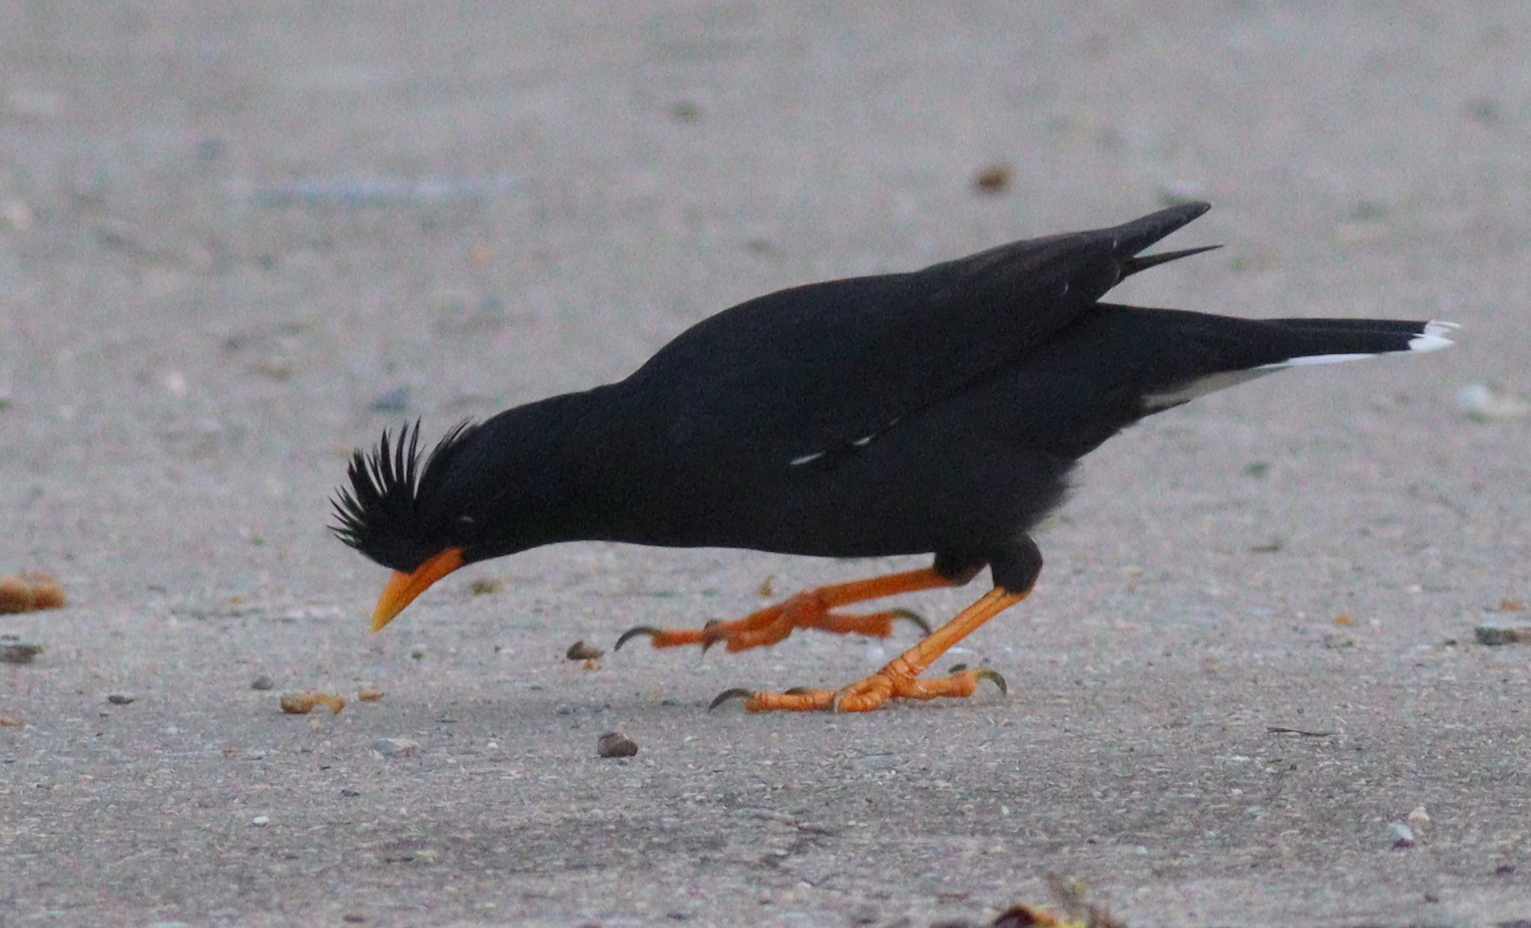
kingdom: Animalia
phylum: Chordata
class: Aves
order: Passeriformes
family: Sturnidae
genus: Acridotheres
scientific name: Acridotheres grandis
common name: Great myna
